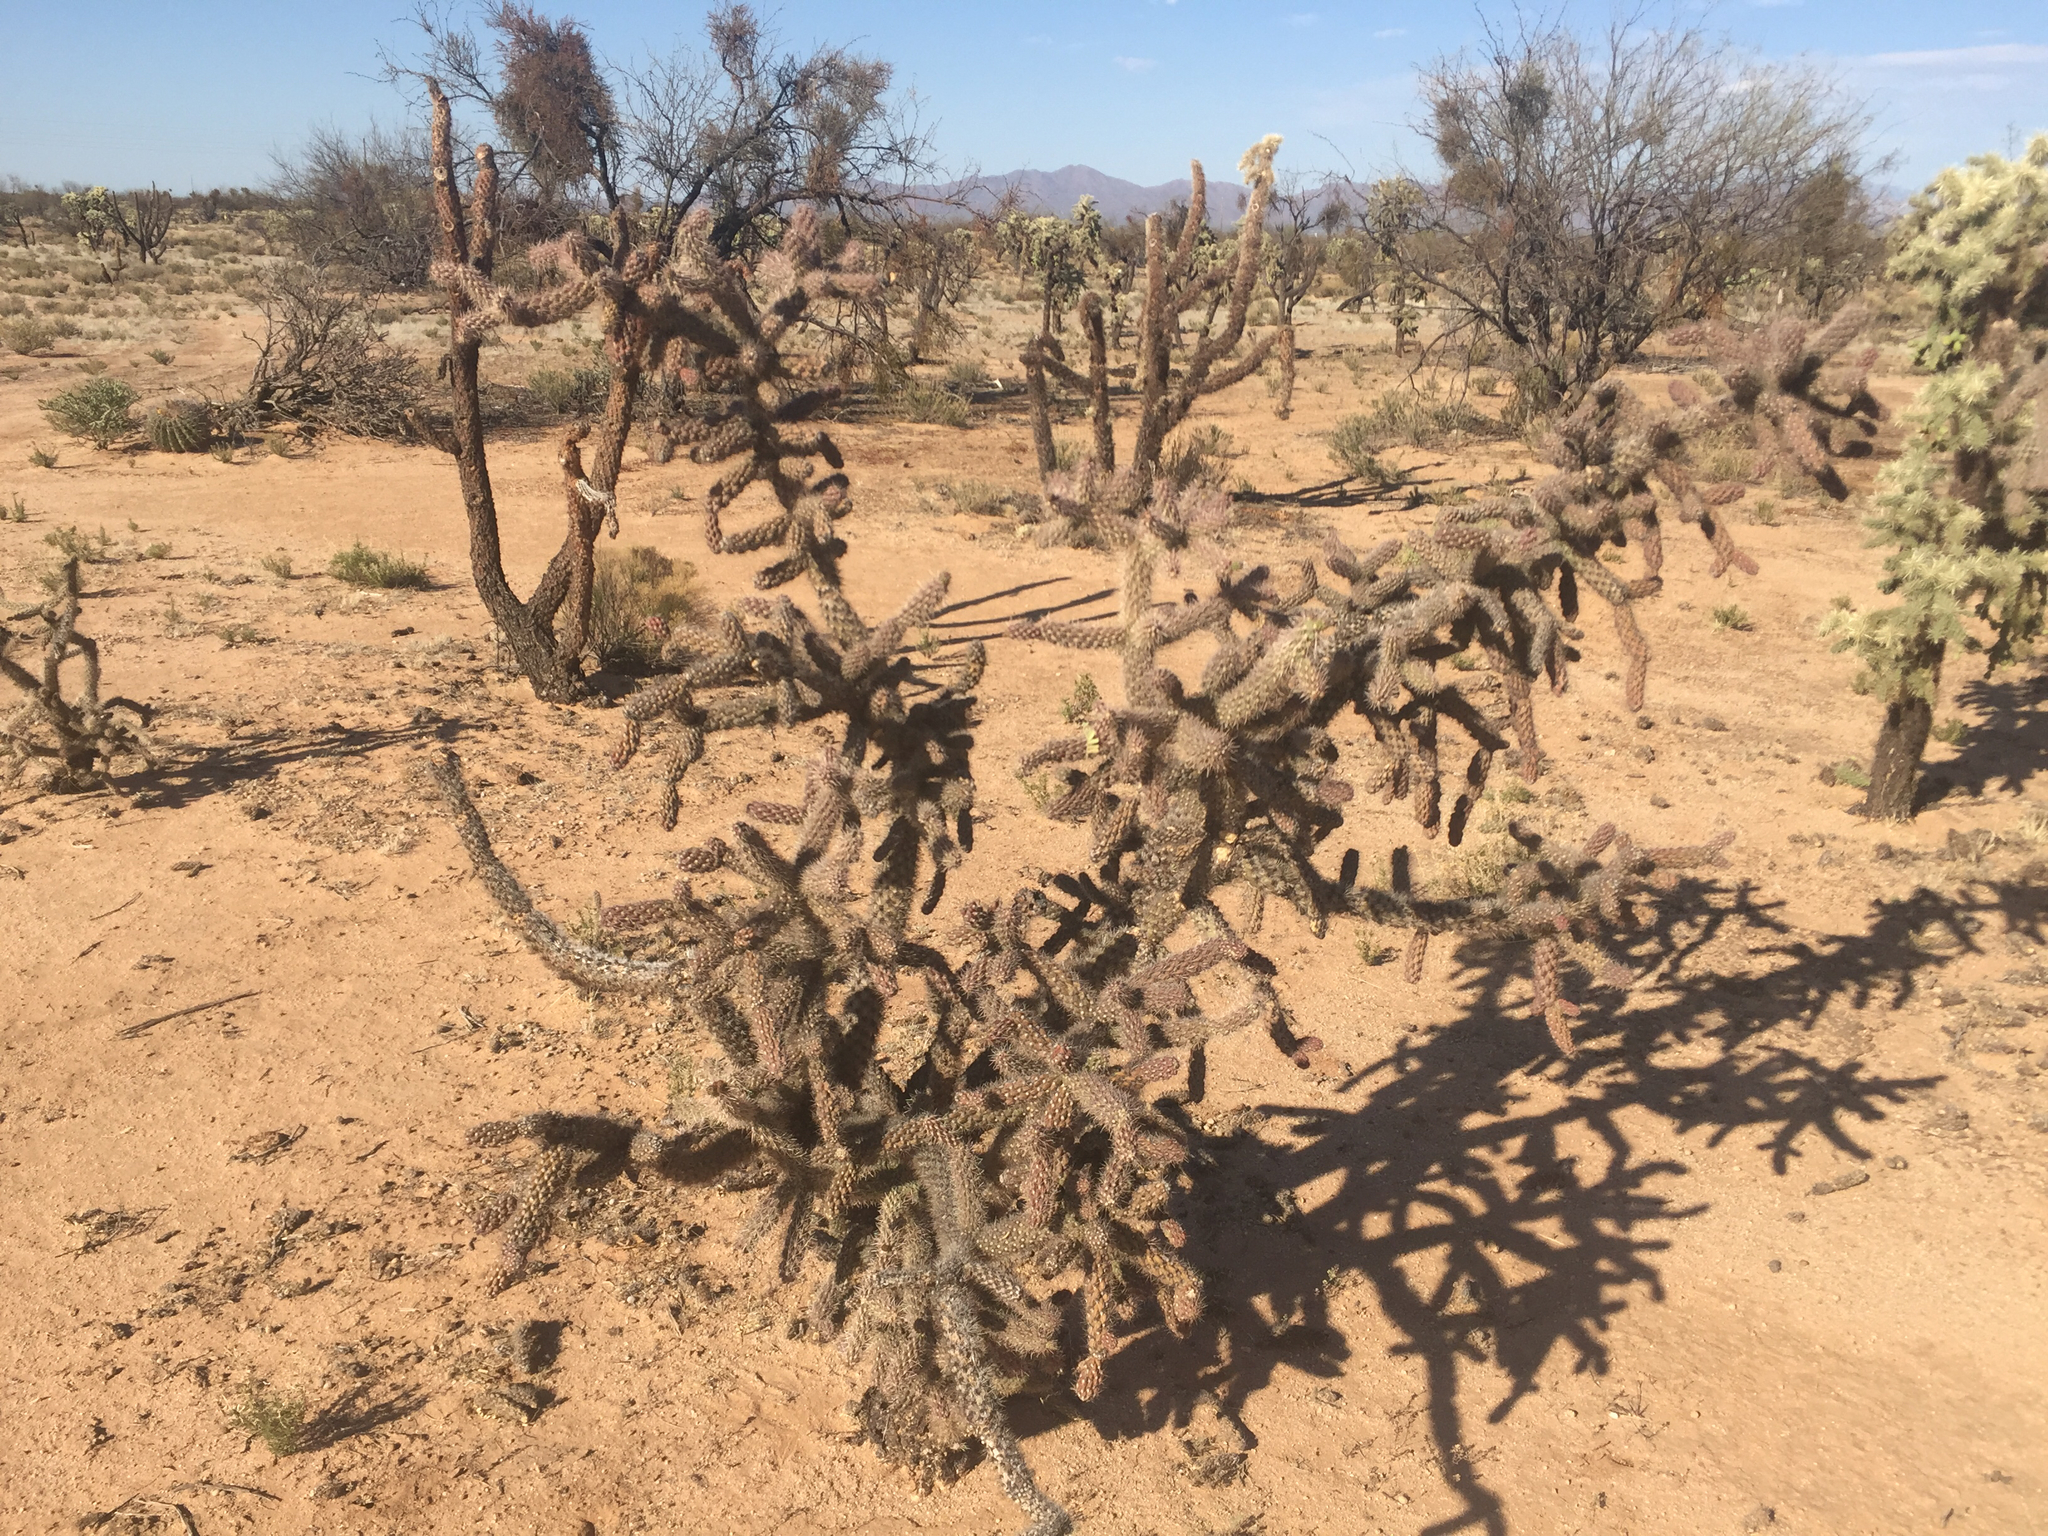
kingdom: Plantae
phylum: Tracheophyta
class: Magnoliopsida
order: Caryophyllales
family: Cactaceae
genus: Cylindropuntia
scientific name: Cylindropuntia imbricata
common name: Candelabrum cactus
